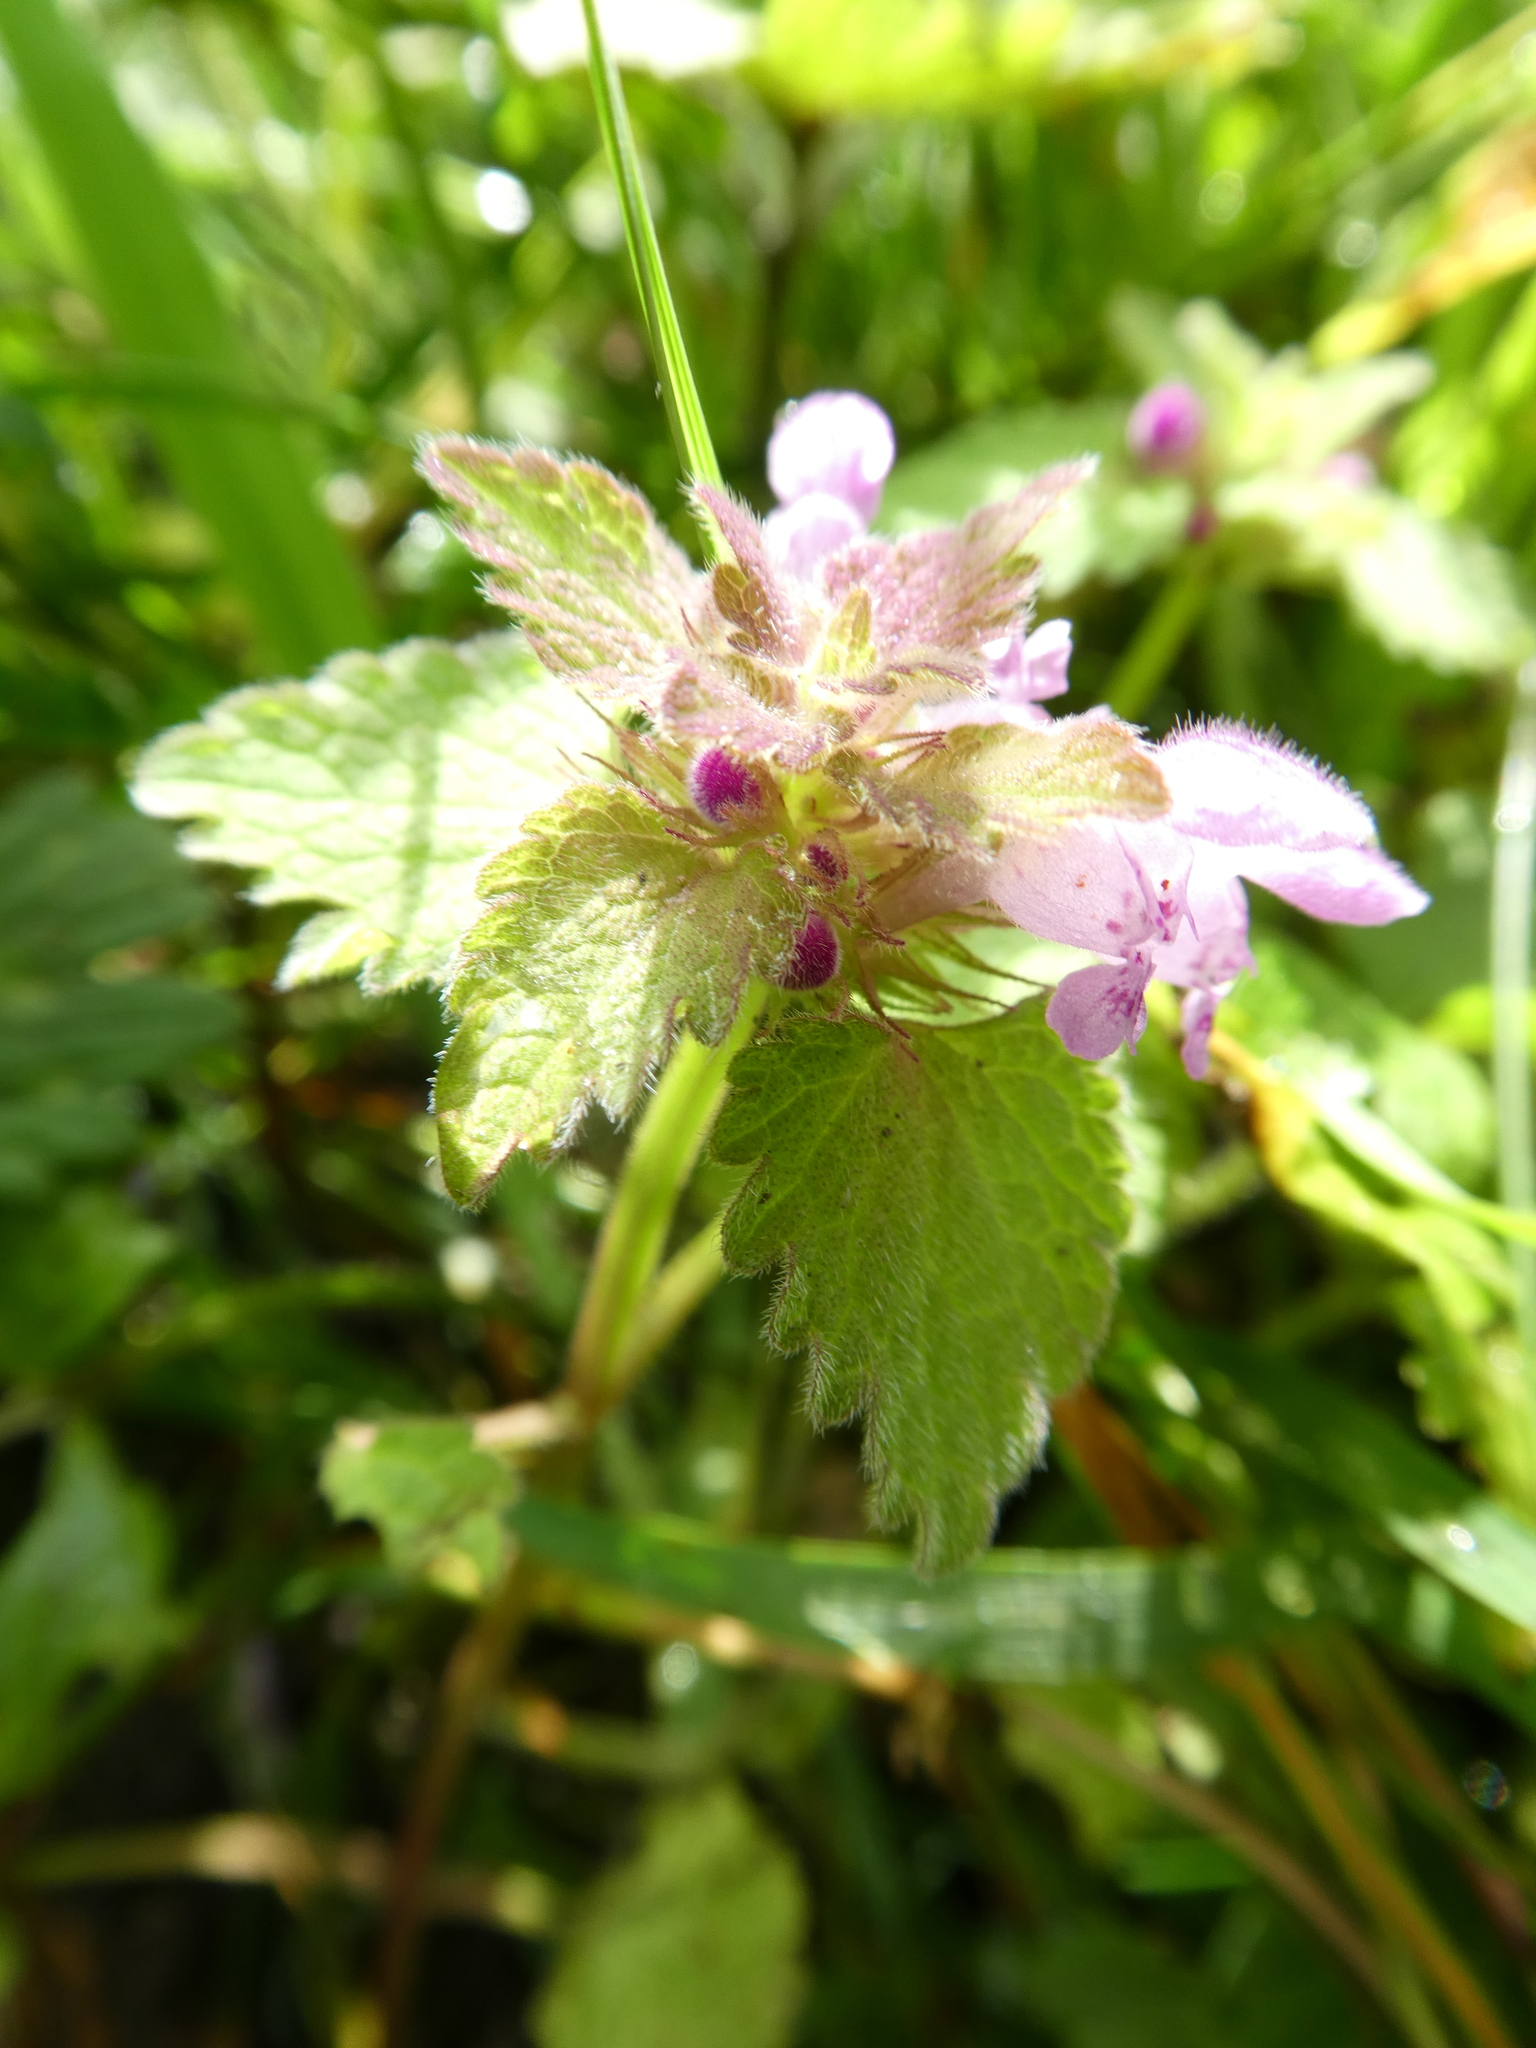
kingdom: Plantae
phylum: Tracheophyta
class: Magnoliopsida
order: Lamiales
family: Lamiaceae
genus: Lamium
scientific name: Lamium purpureum
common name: Red dead-nettle
